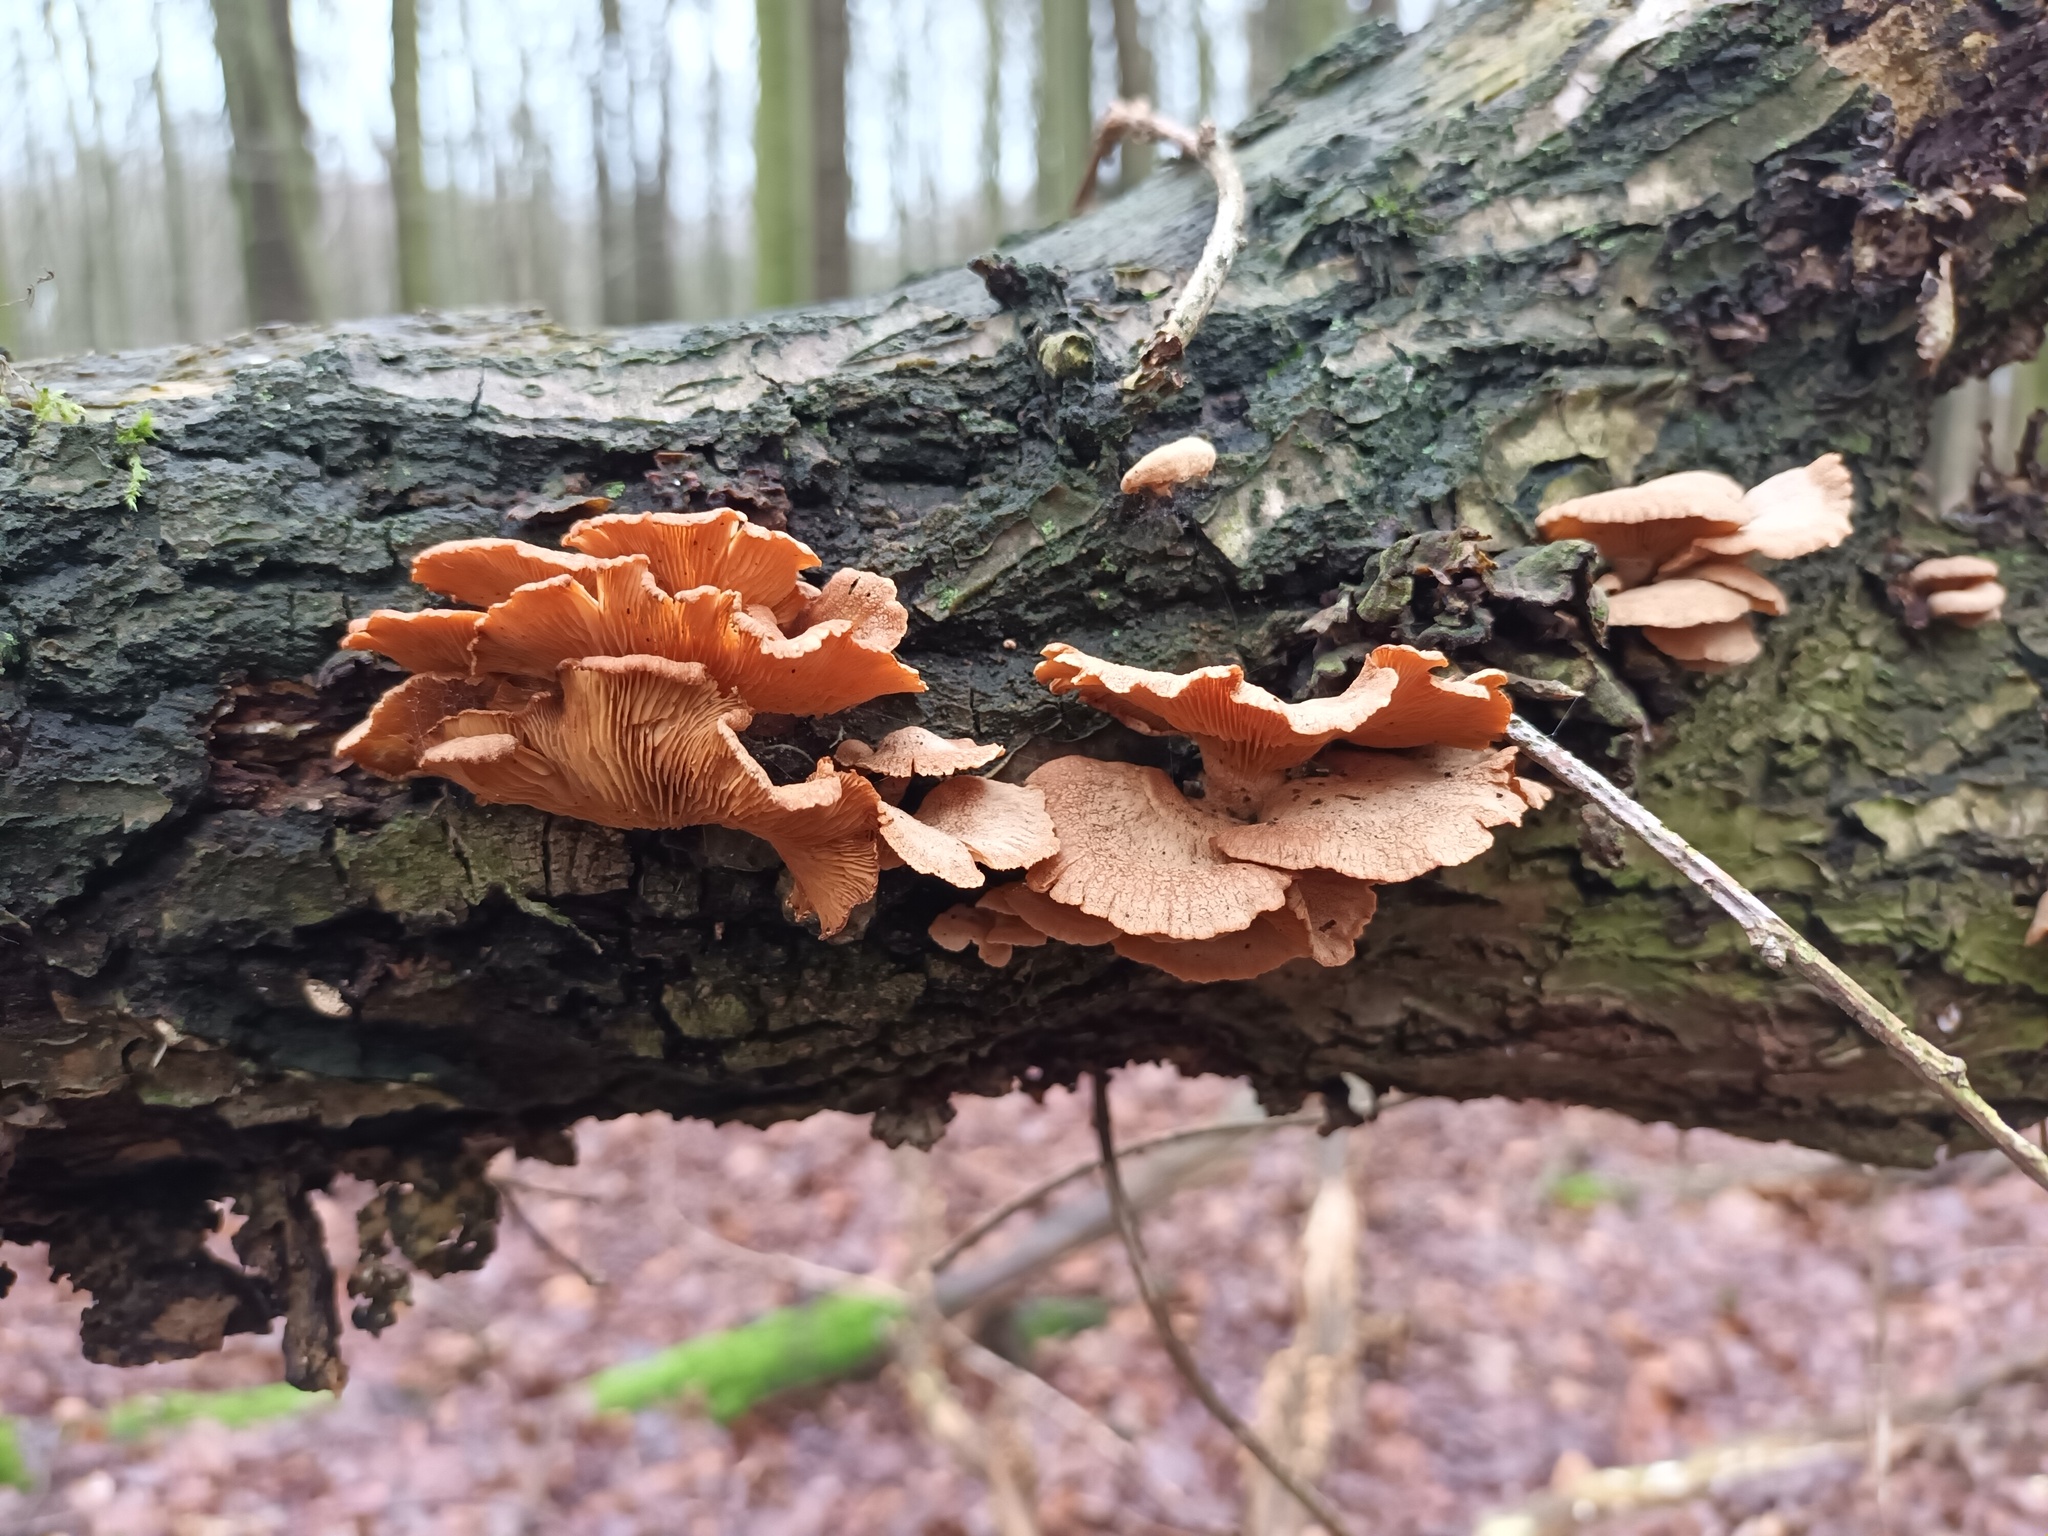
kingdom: Fungi
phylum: Basidiomycota
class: Agaricomycetes
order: Agaricales
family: Mycenaceae
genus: Panellus
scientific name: Panellus stipticus
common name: Bitter oysterling
